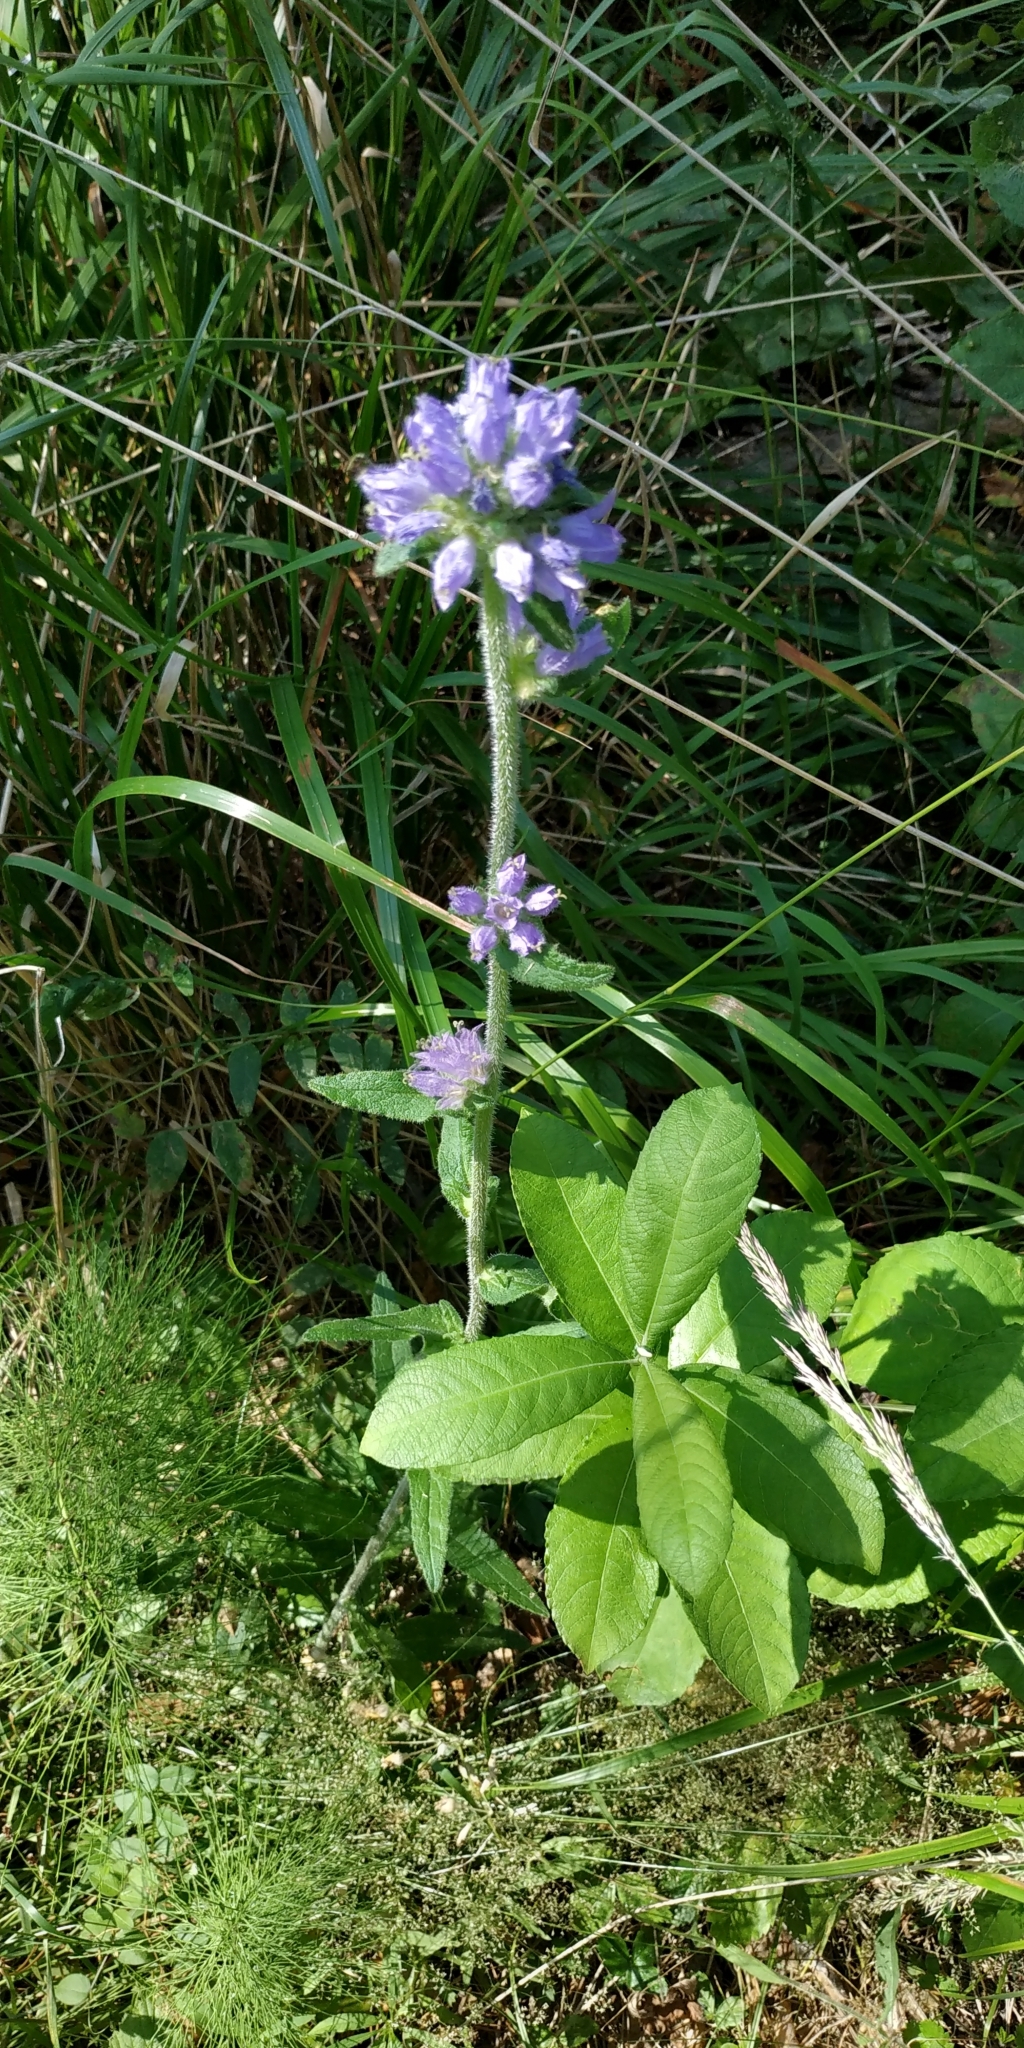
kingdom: Plantae
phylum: Tracheophyta
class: Magnoliopsida
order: Asterales
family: Campanulaceae
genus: Campanula
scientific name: Campanula cervicaria
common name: Bristly bellflower
